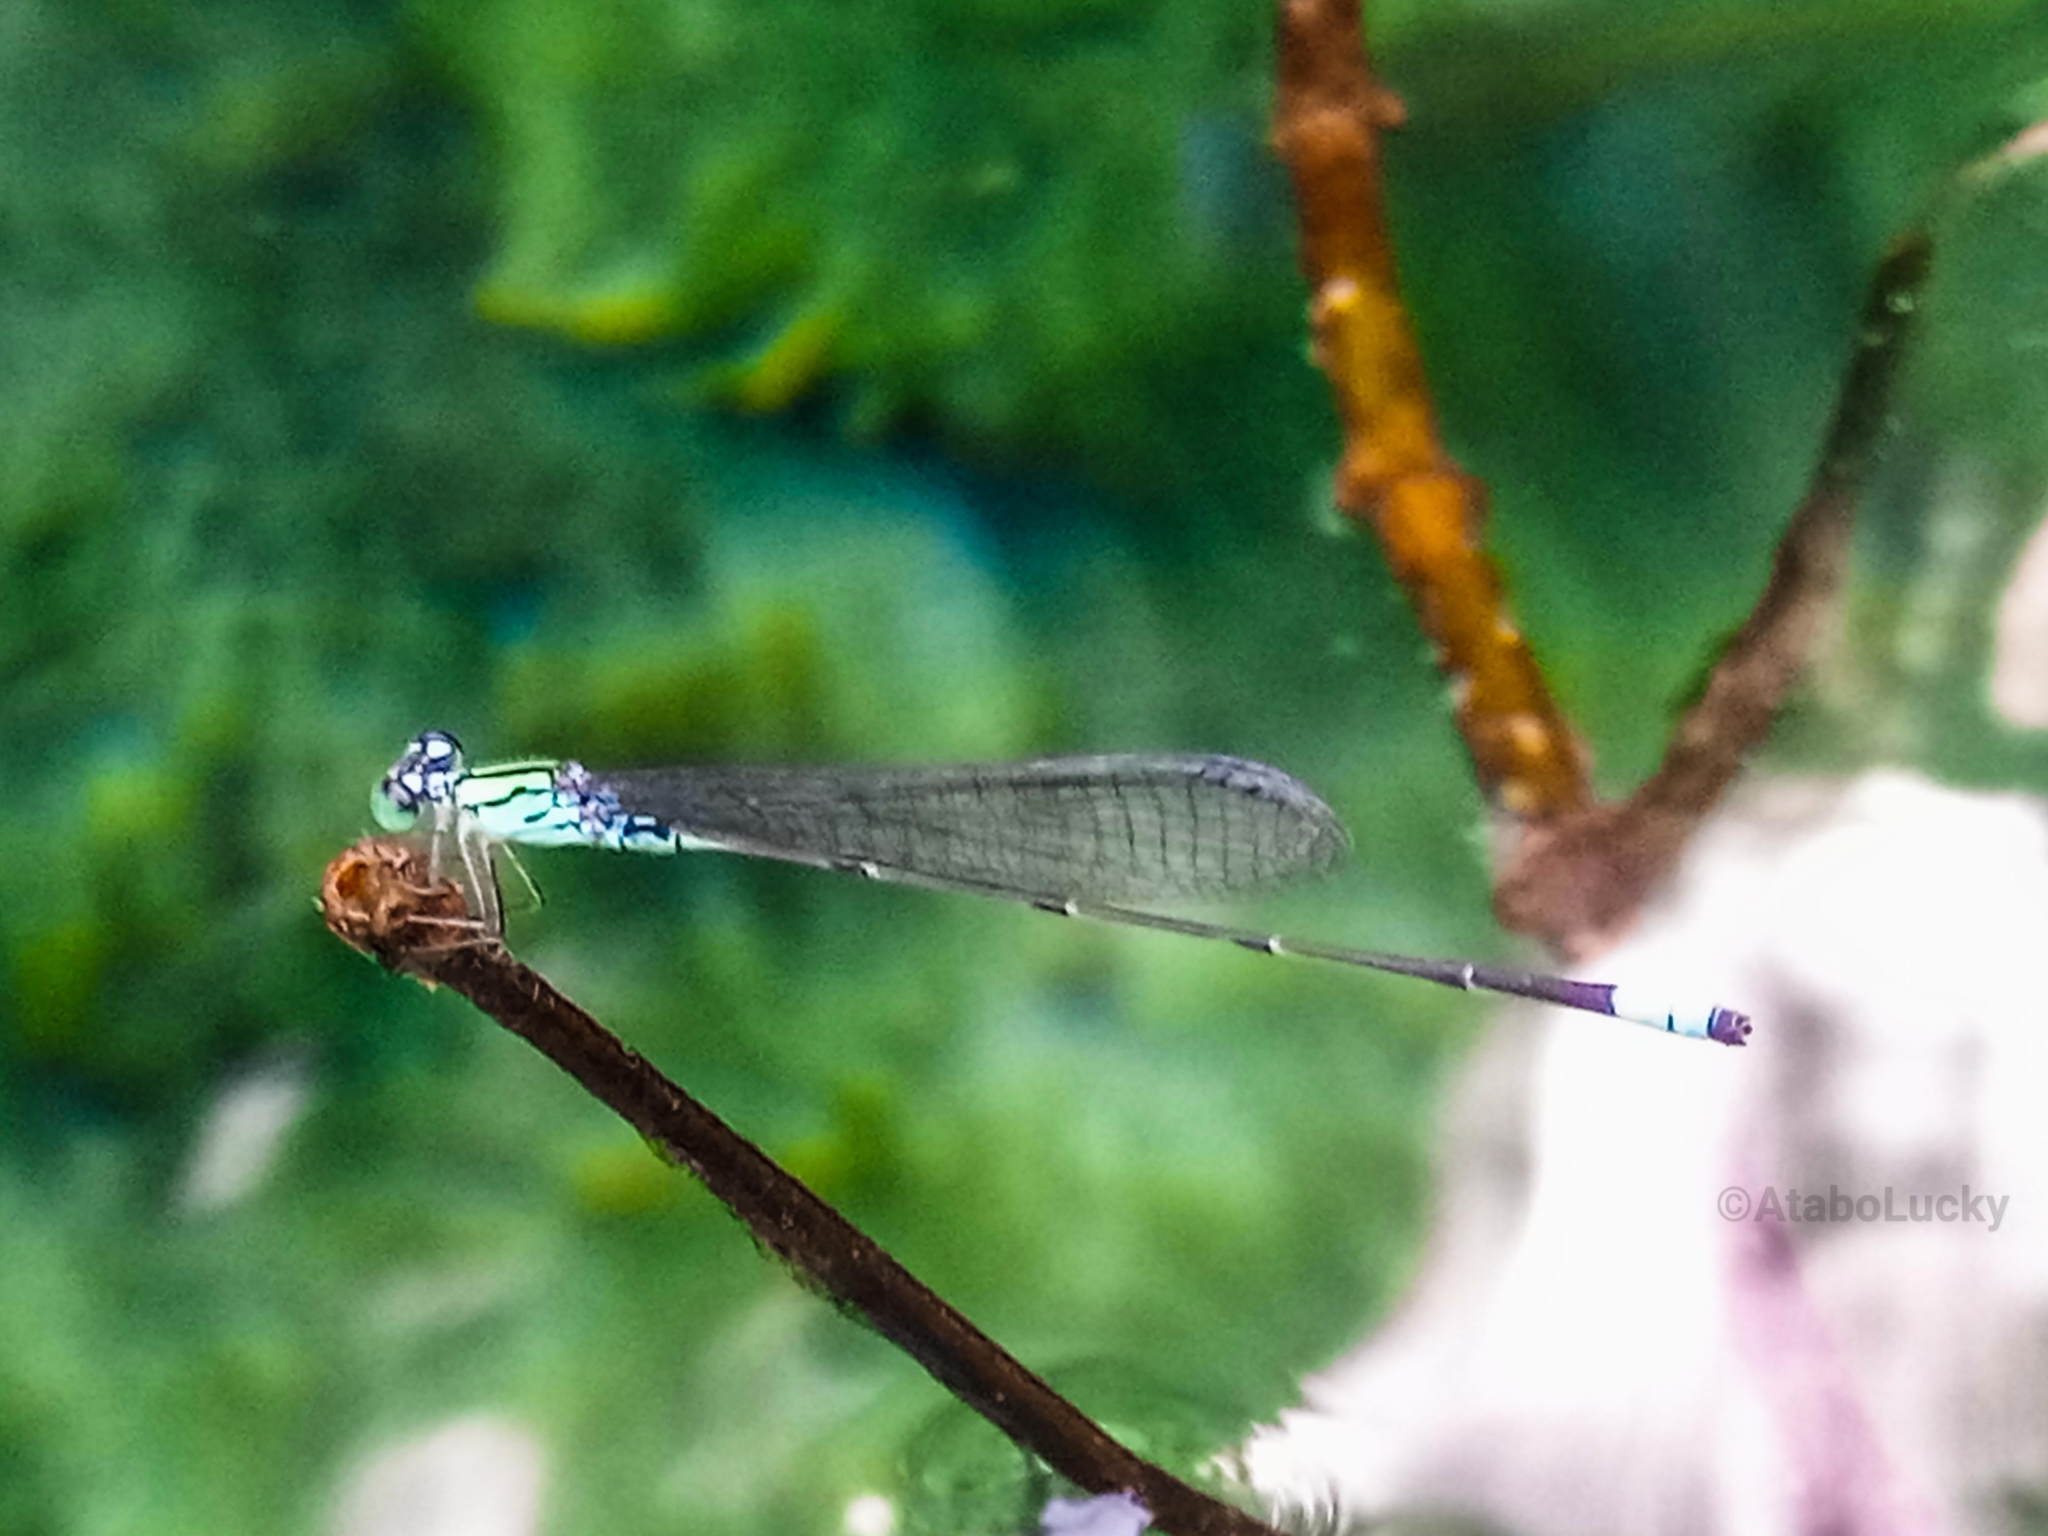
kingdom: Animalia
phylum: Arthropoda
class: Insecta
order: Odonata
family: Coenagrionidae
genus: Pseudagrion
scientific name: Pseudagrion coeleste
